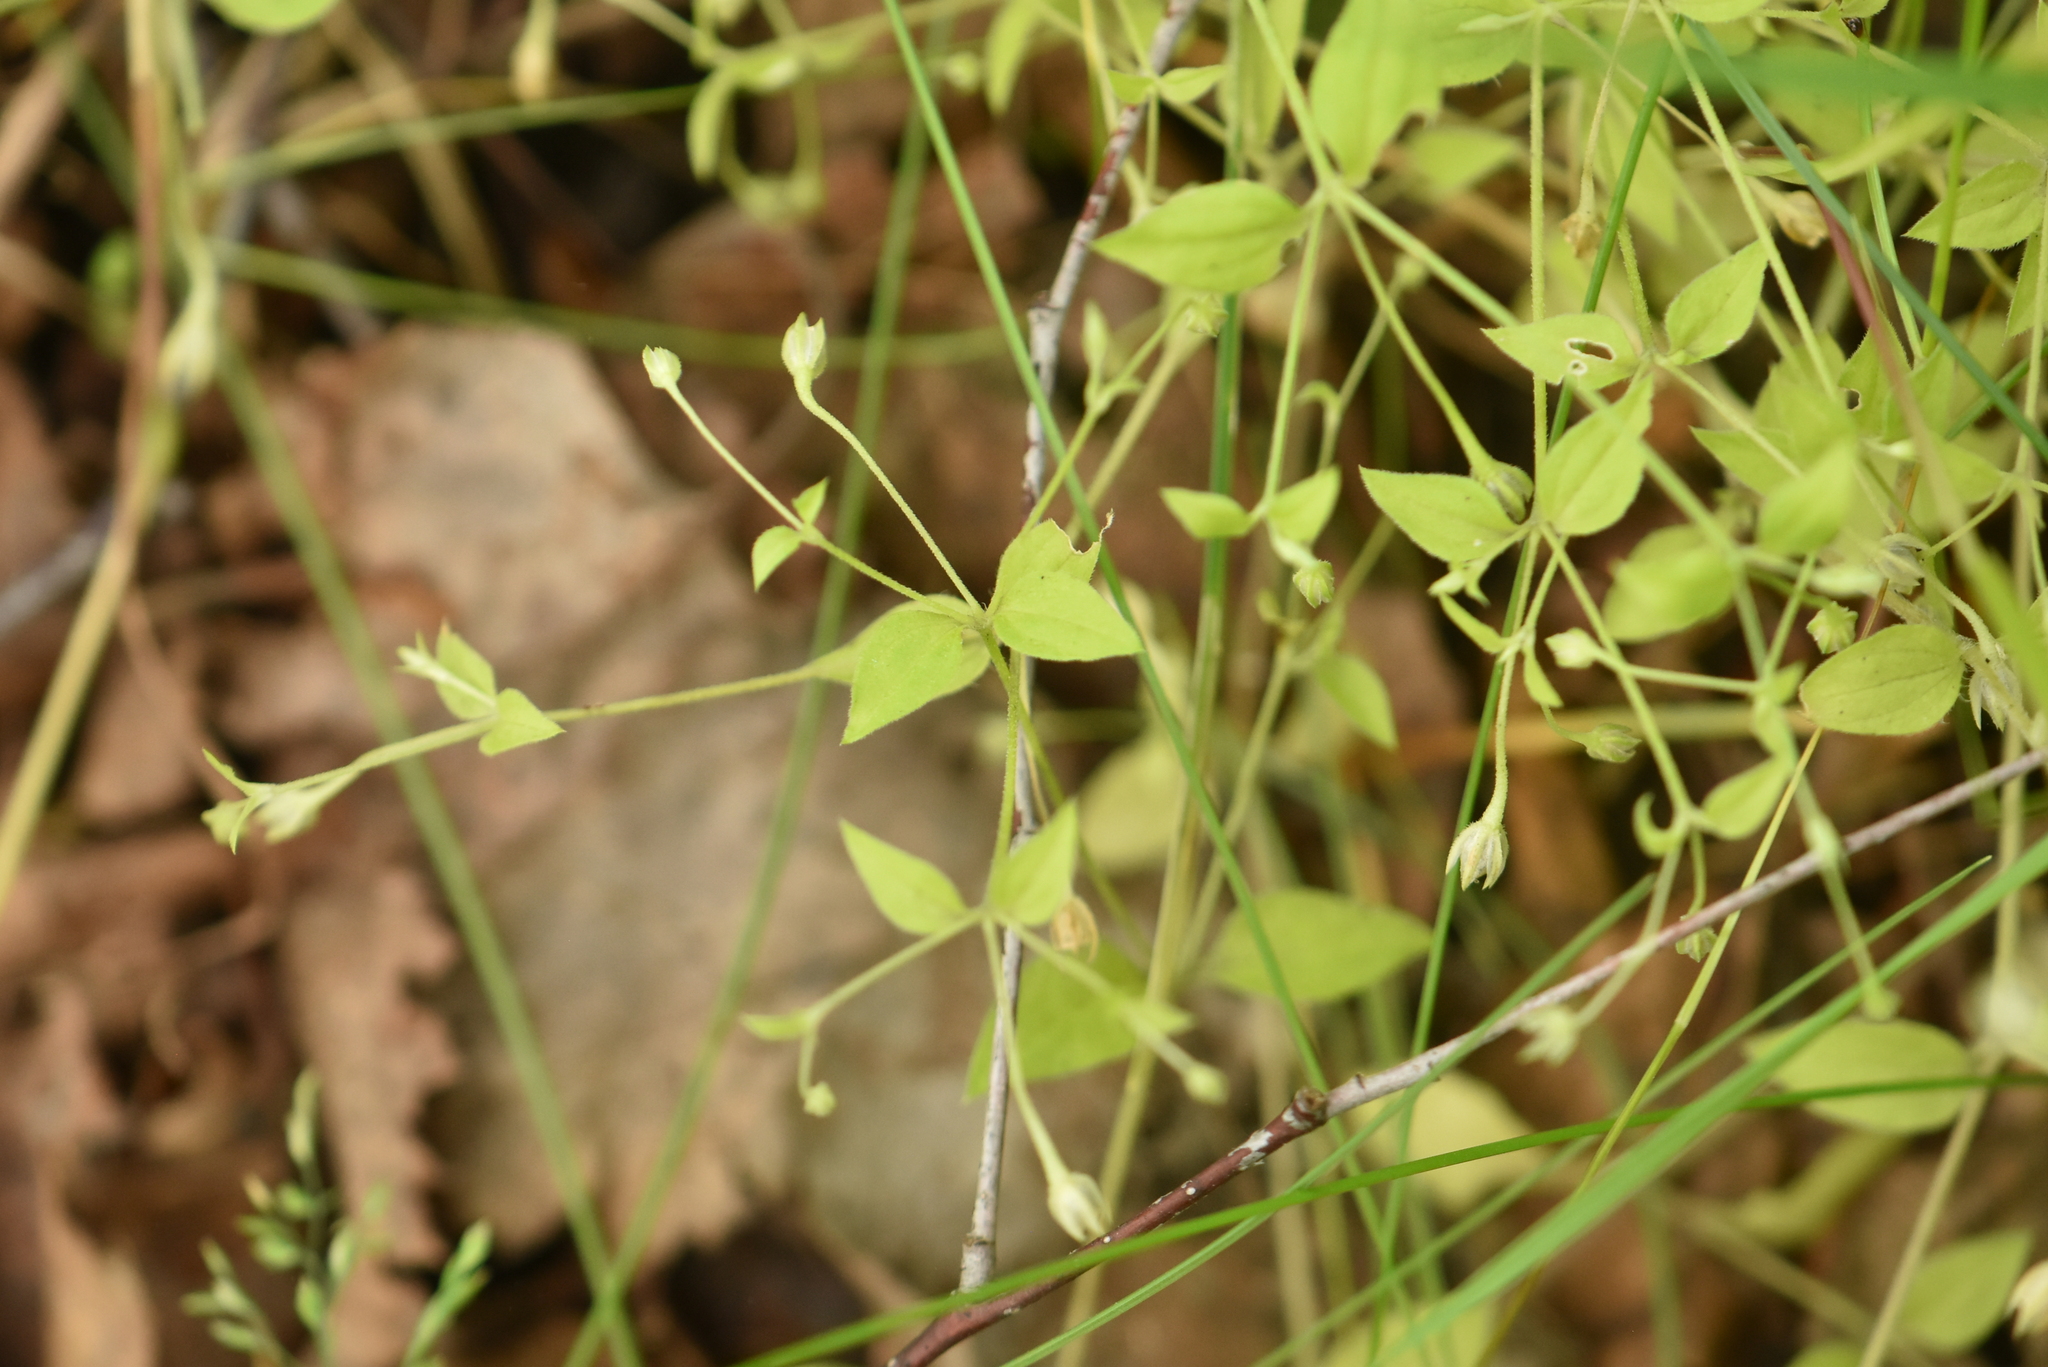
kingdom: Plantae
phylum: Tracheophyta
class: Magnoliopsida
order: Caryophyllales
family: Caryophyllaceae
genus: Moehringia
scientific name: Moehringia trinervia
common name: Three-nerved sandwort
